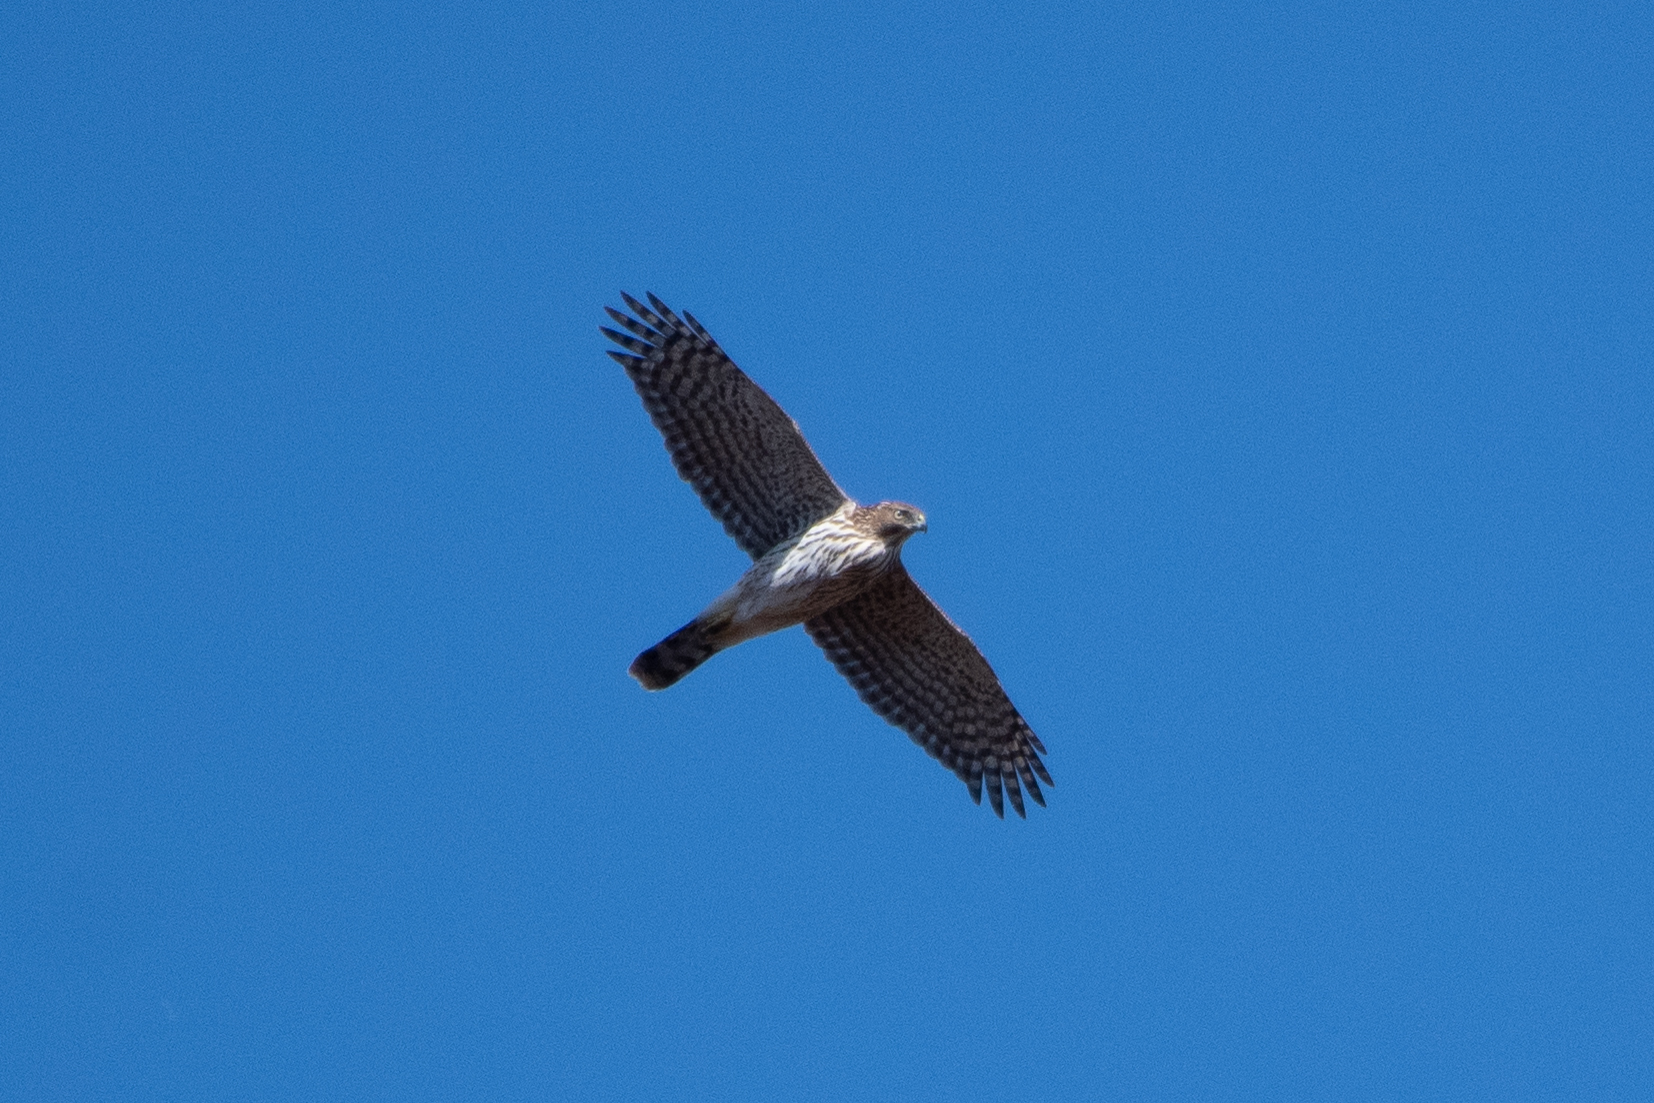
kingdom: Animalia
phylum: Chordata
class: Aves
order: Accipitriformes
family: Accipitridae
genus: Accipiter
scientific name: Accipiter cooperii
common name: Cooper's hawk
